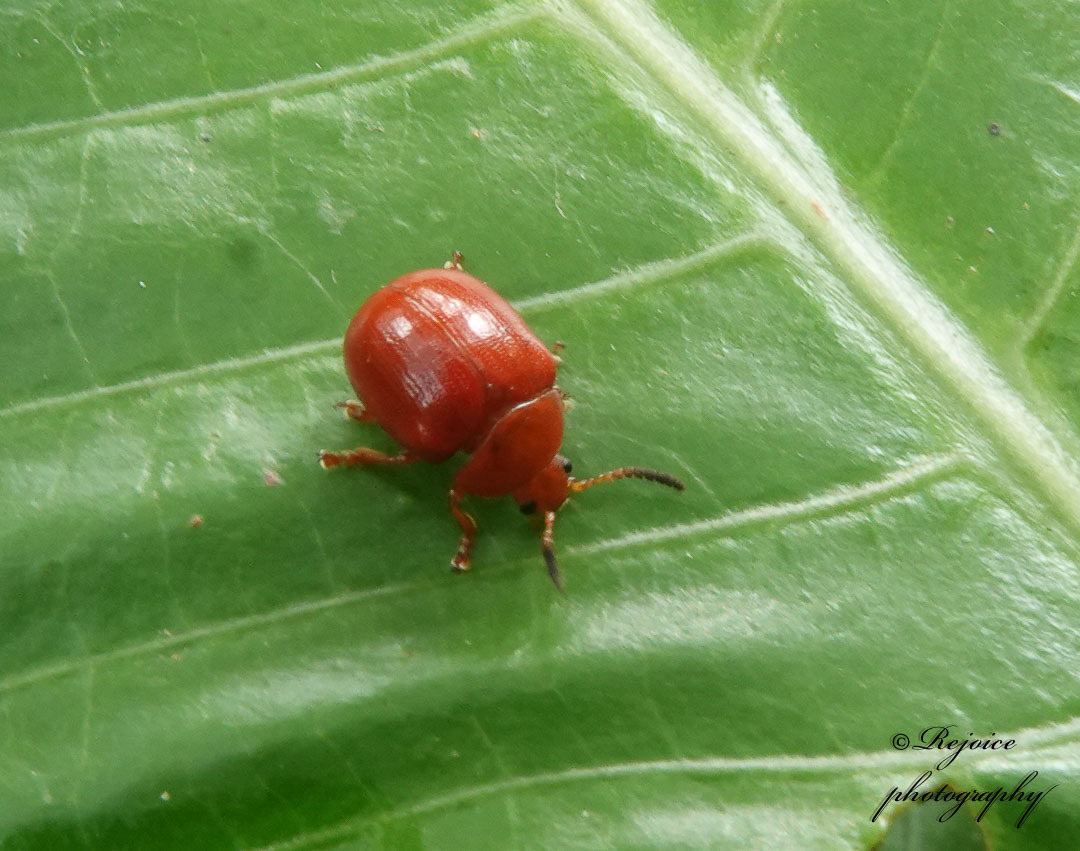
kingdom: Animalia
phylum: Arthropoda
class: Insecta
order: Coleoptera
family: Chrysomelidae
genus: Lycaria
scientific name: Lycaria
